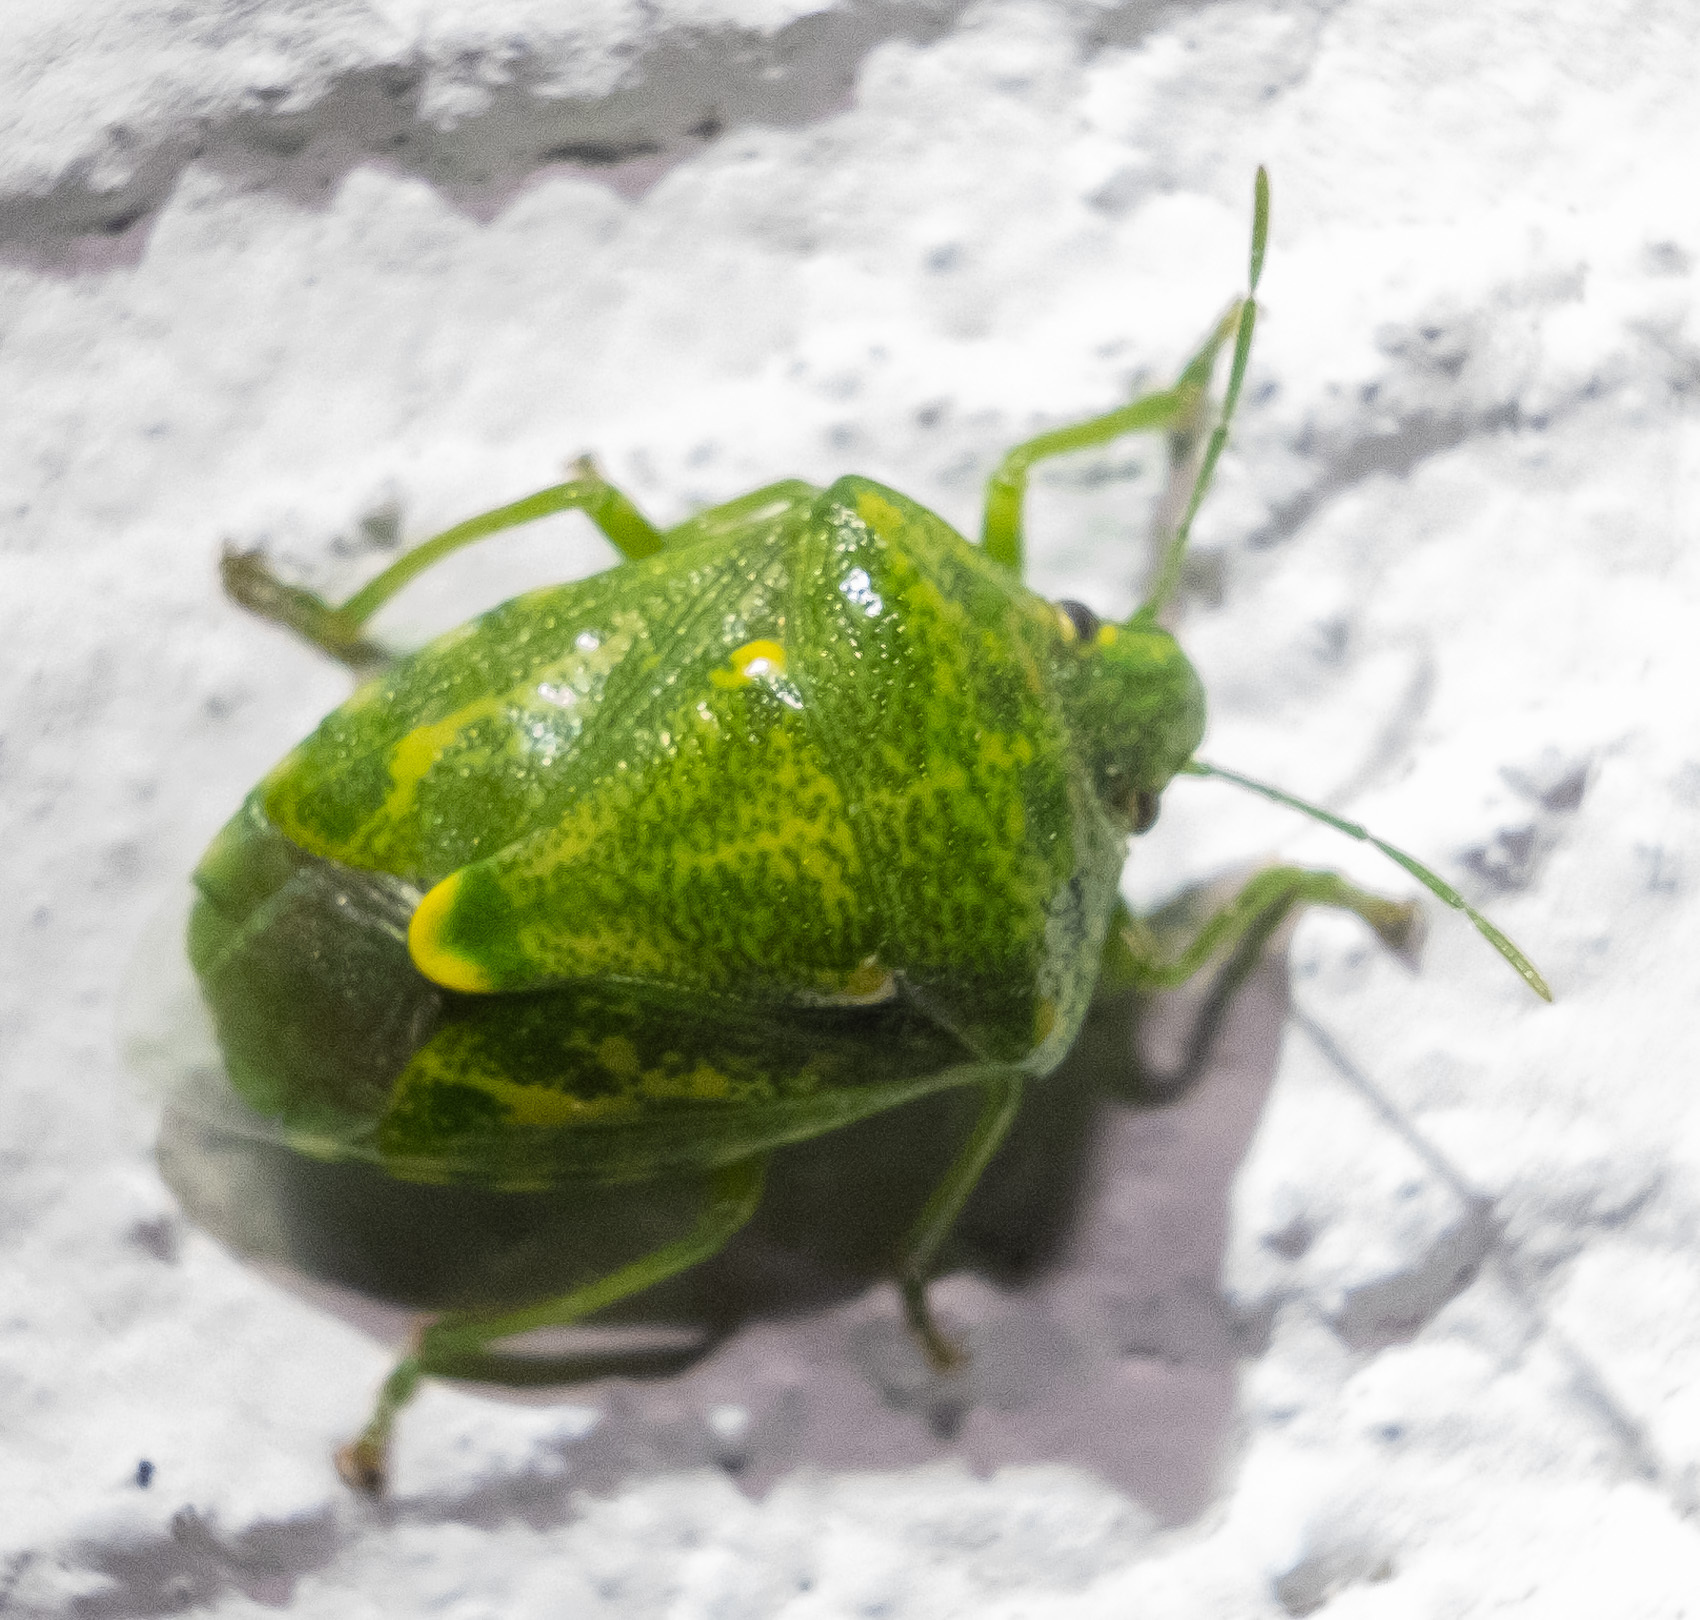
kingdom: Animalia
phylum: Arthropoda
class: Insecta
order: Hemiptera
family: Pentatomidae
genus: Banasa
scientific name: Banasa euchlora
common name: Cedar berry bug
